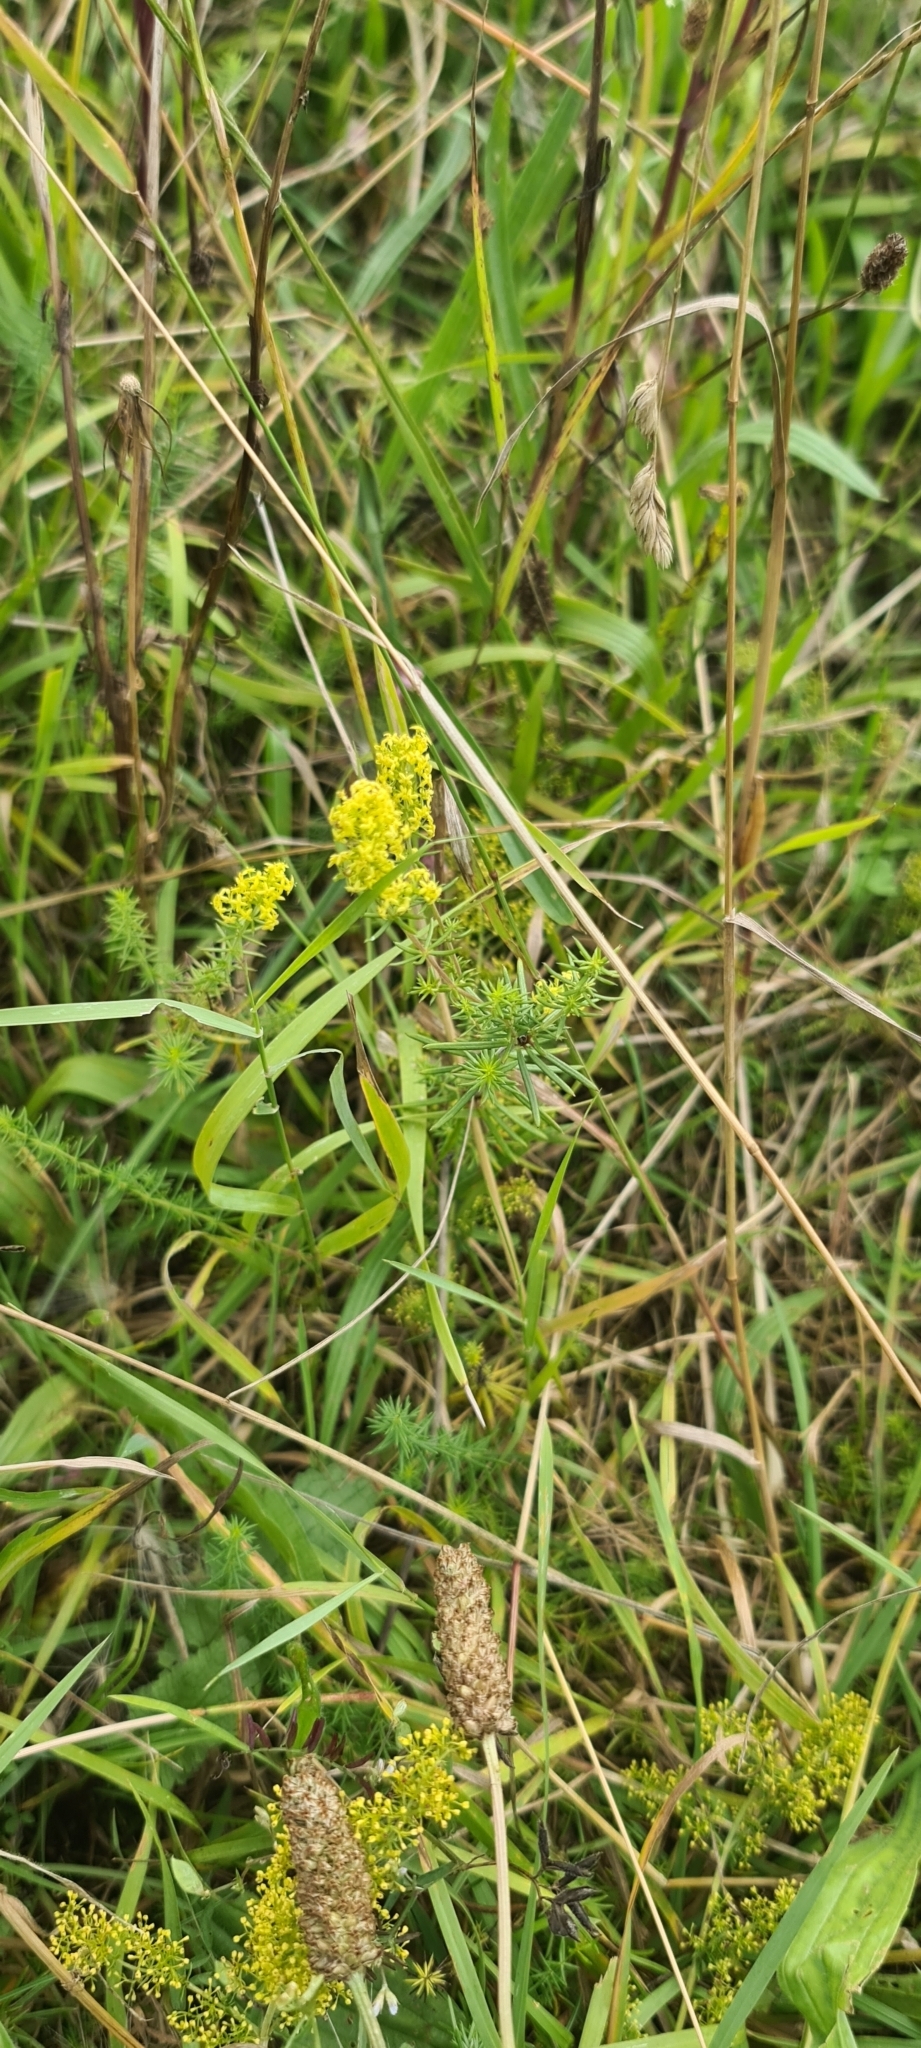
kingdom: Plantae
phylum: Tracheophyta
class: Magnoliopsida
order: Gentianales
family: Rubiaceae
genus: Galium
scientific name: Galium verum
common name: Lady's bedstraw
